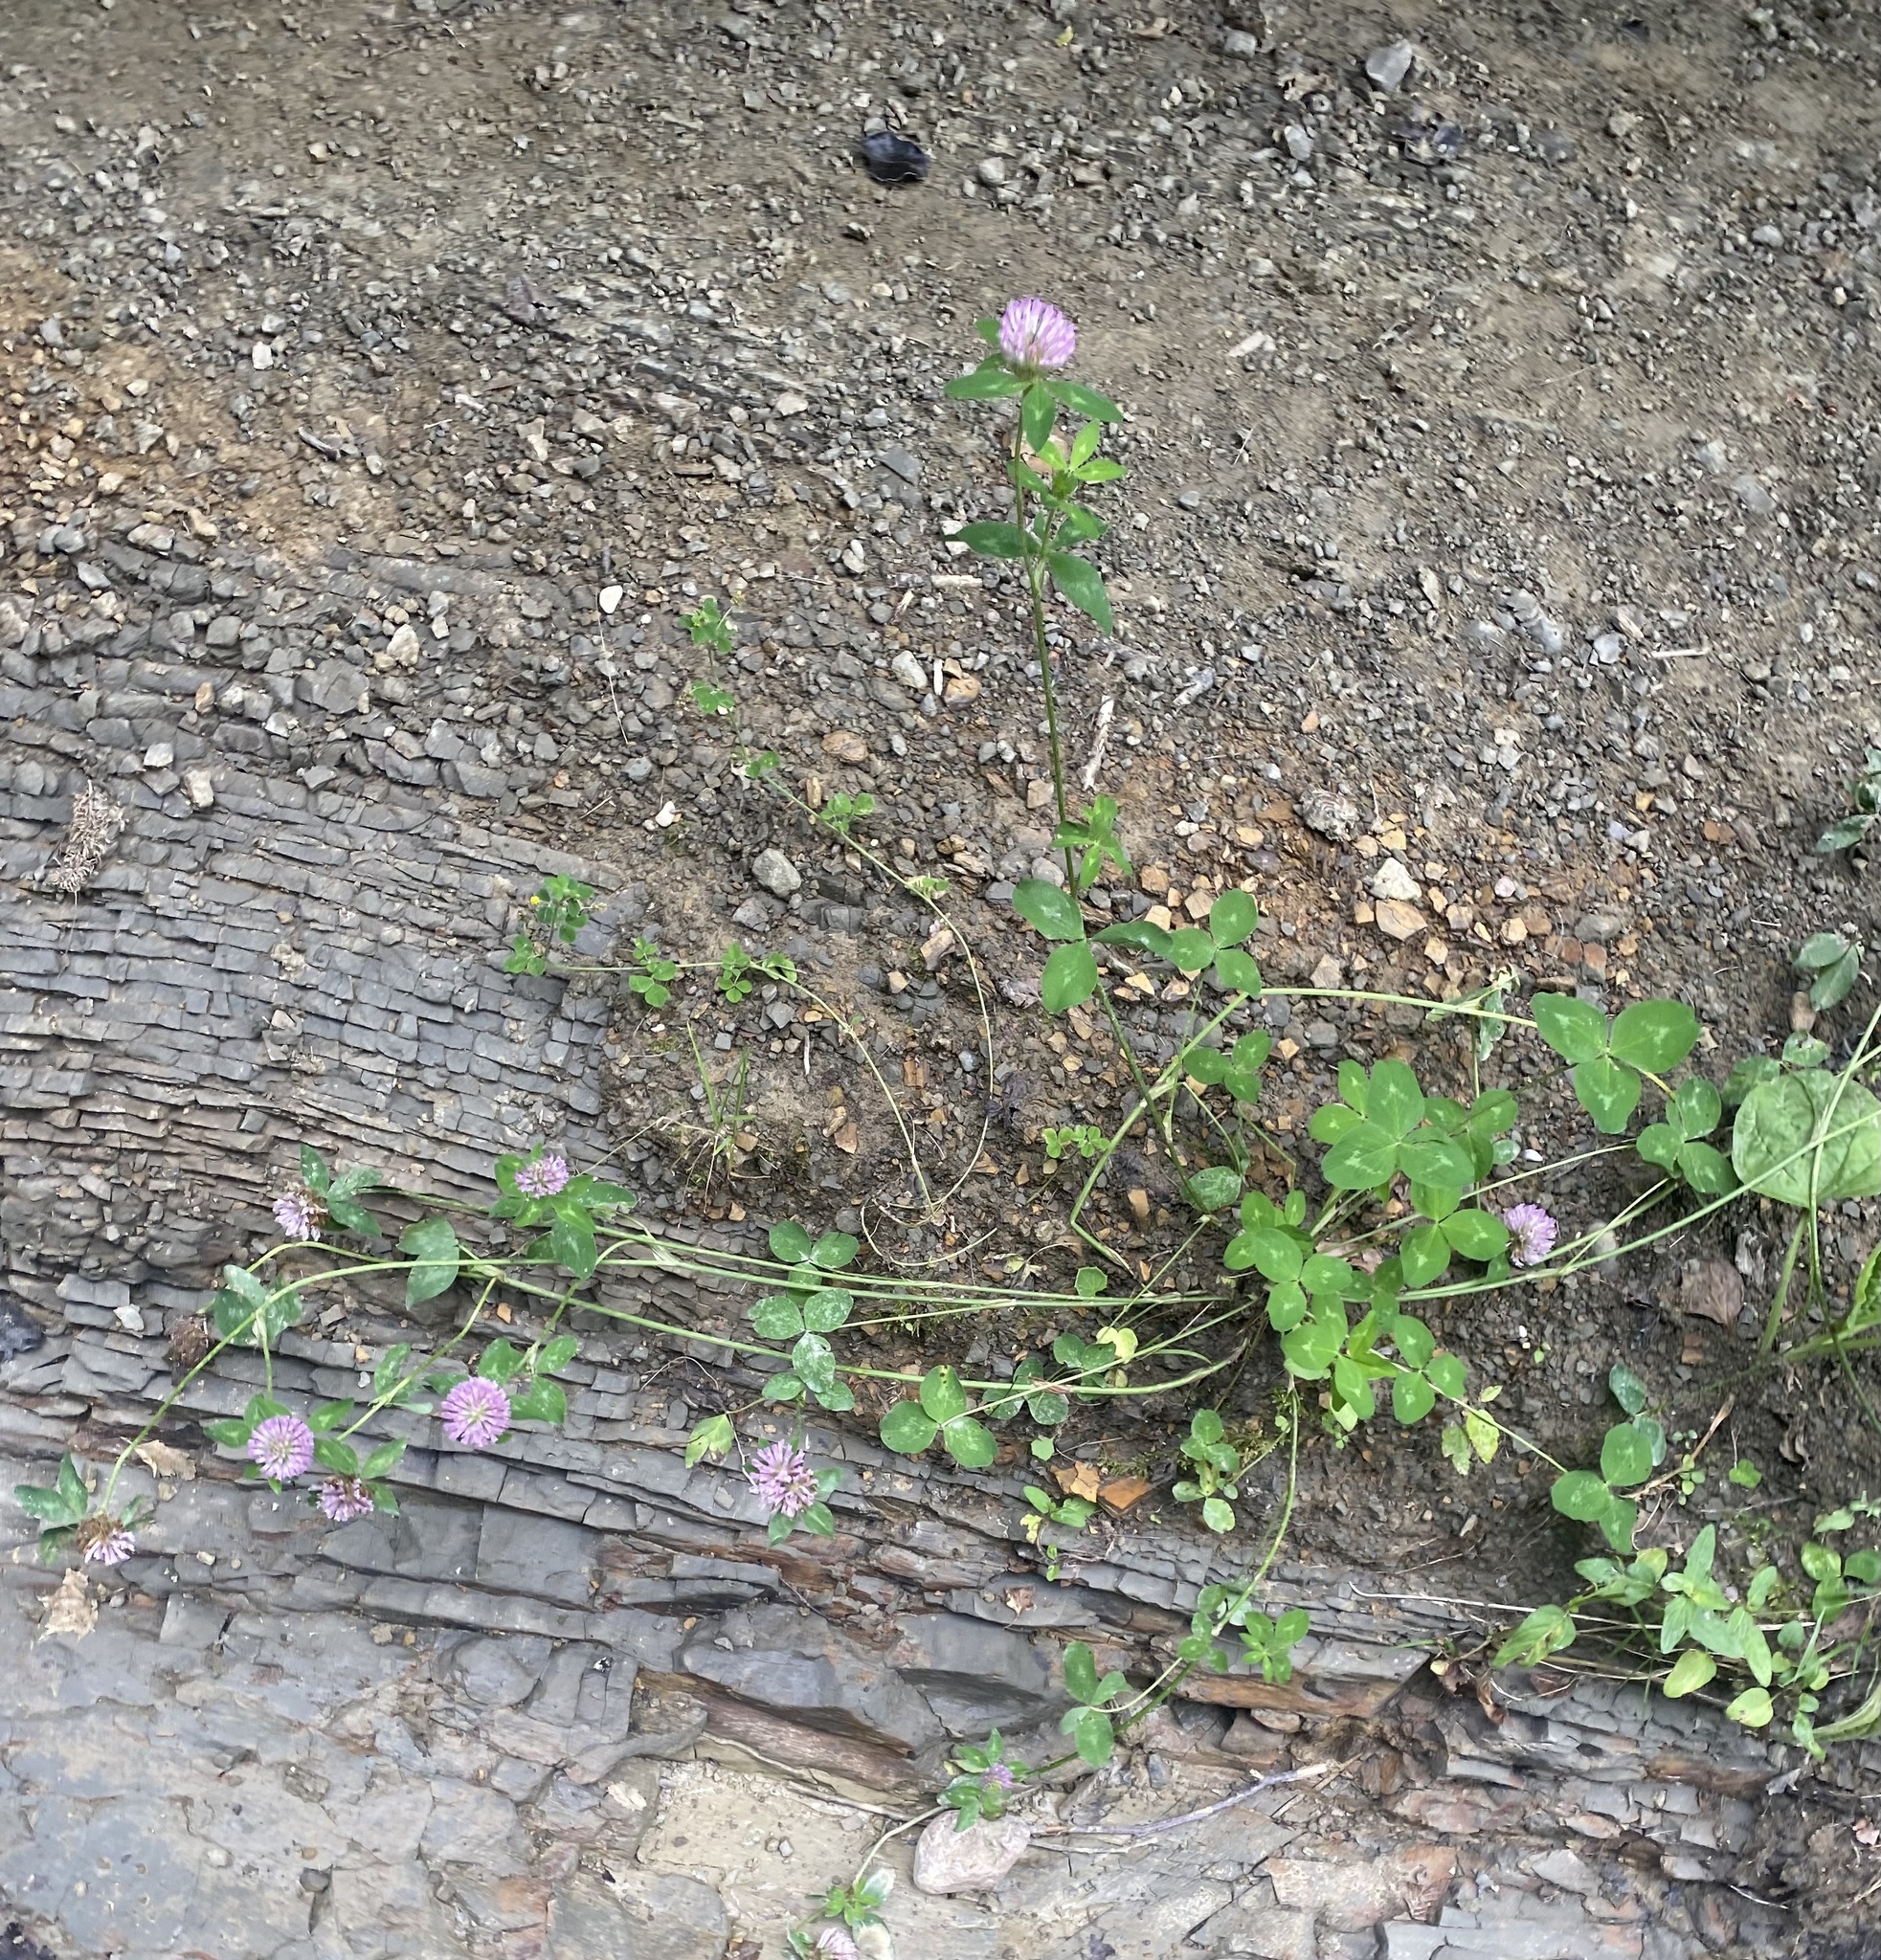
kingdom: Plantae
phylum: Tracheophyta
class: Magnoliopsida
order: Fabales
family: Fabaceae
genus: Trifolium
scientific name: Trifolium pratense
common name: Red clover
